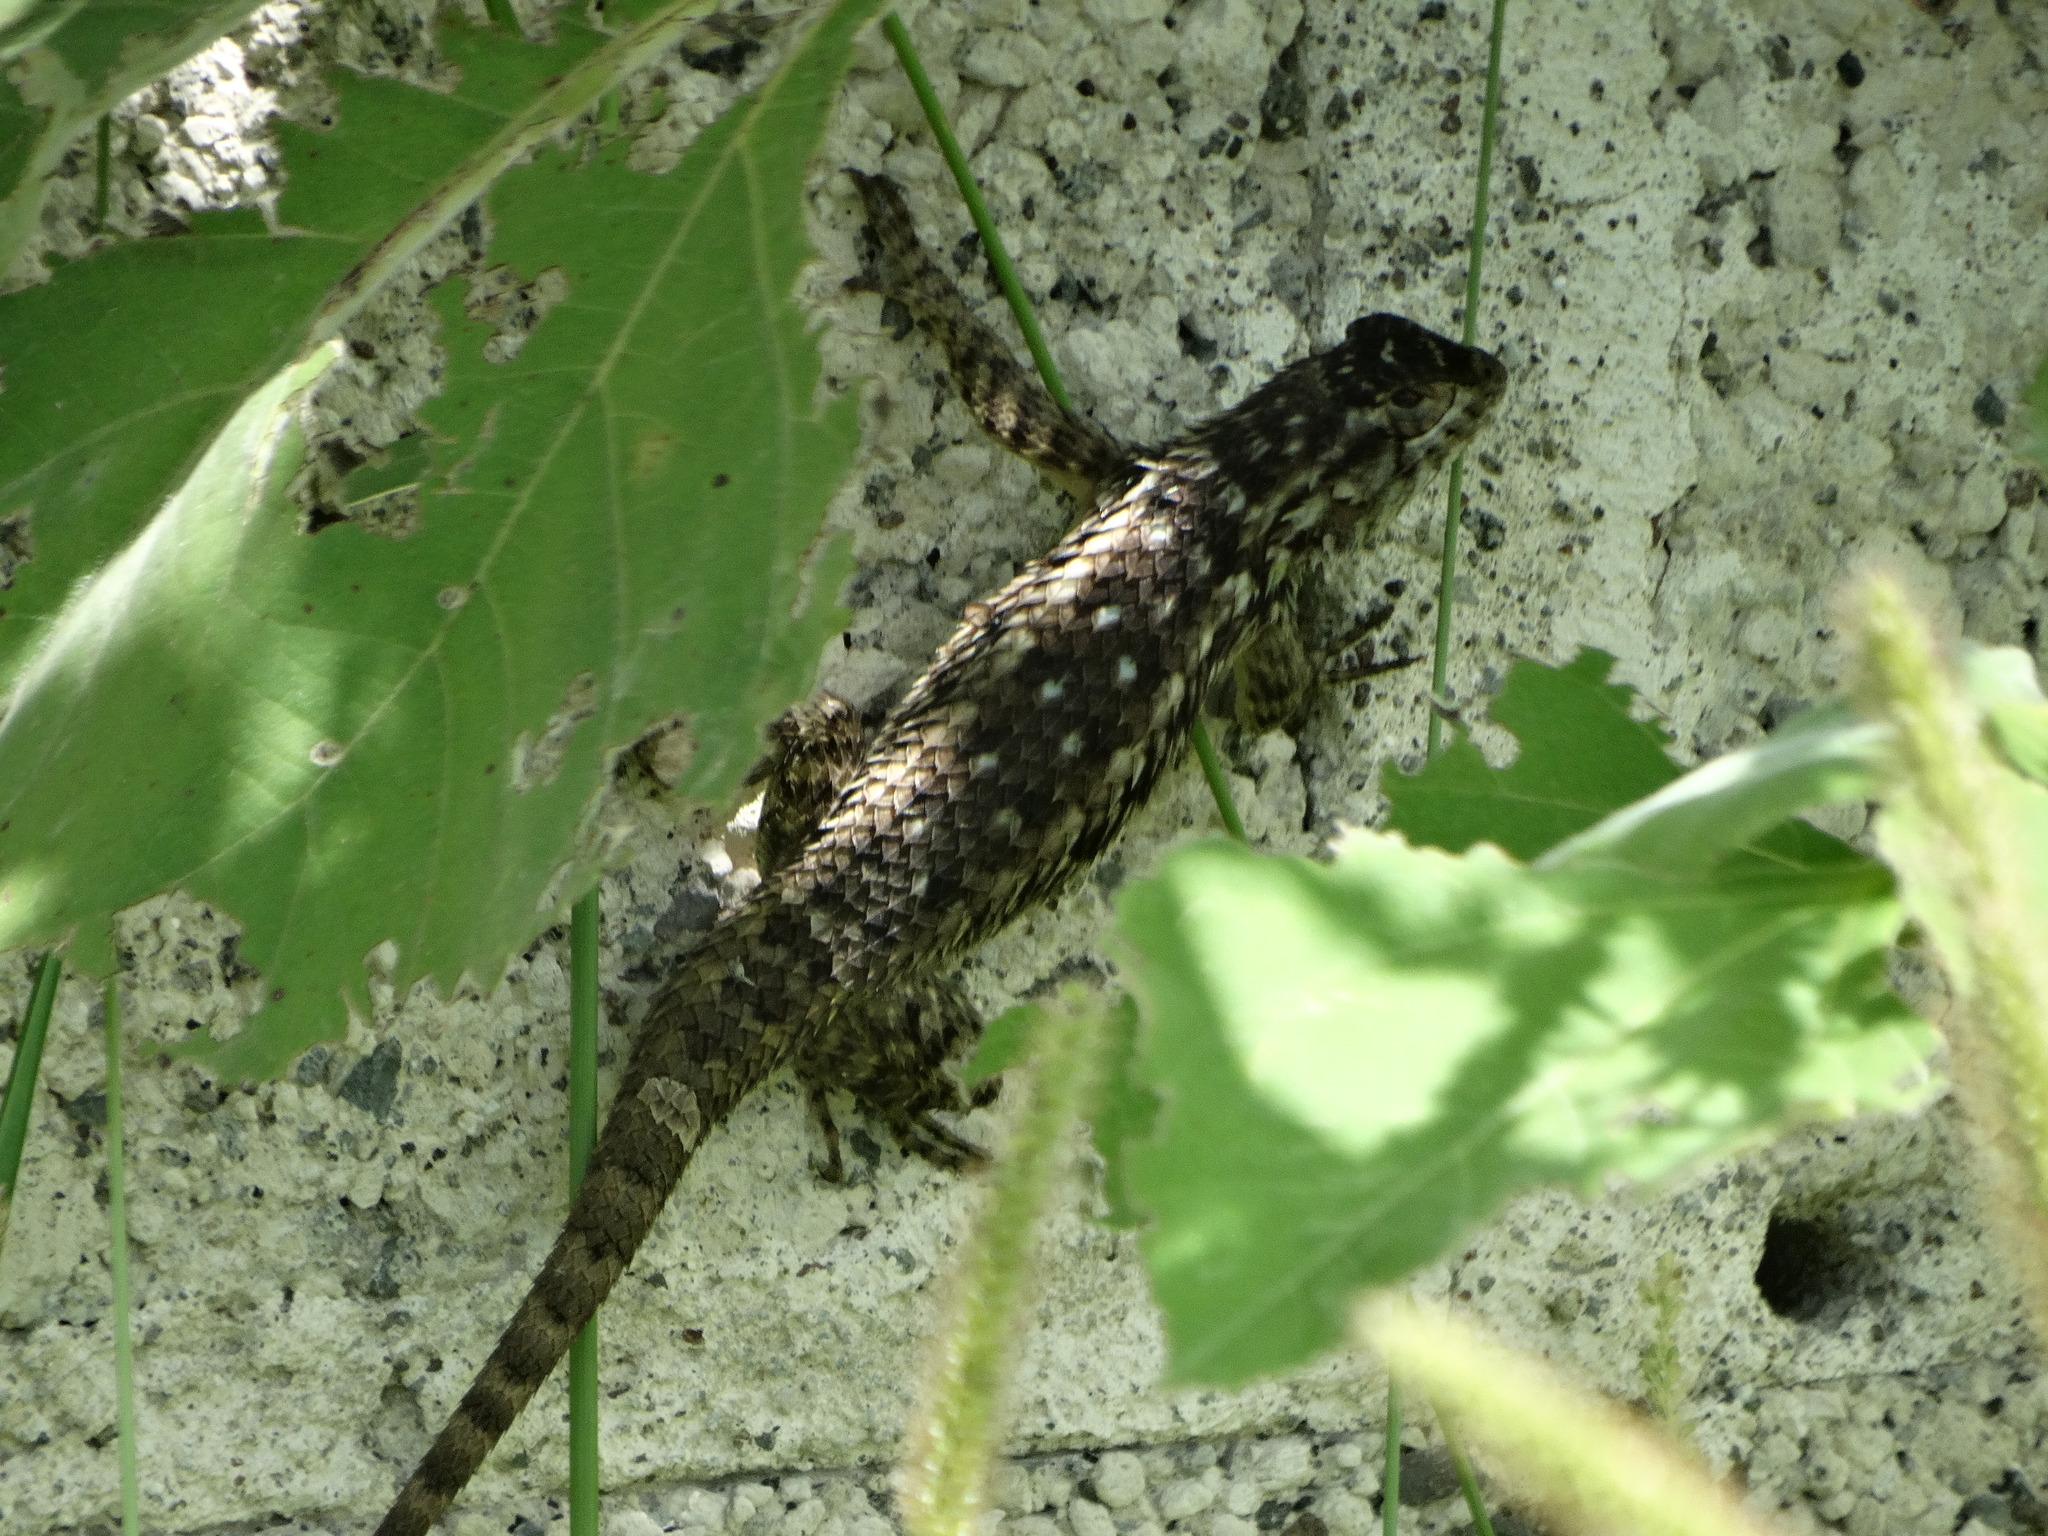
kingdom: Animalia
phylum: Chordata
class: Squamata
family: Phrynosomatidae
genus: Sceloporus
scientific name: Sceloporus spinosus
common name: Blue-spotted spiny lizard [caeruleopunctatus]
